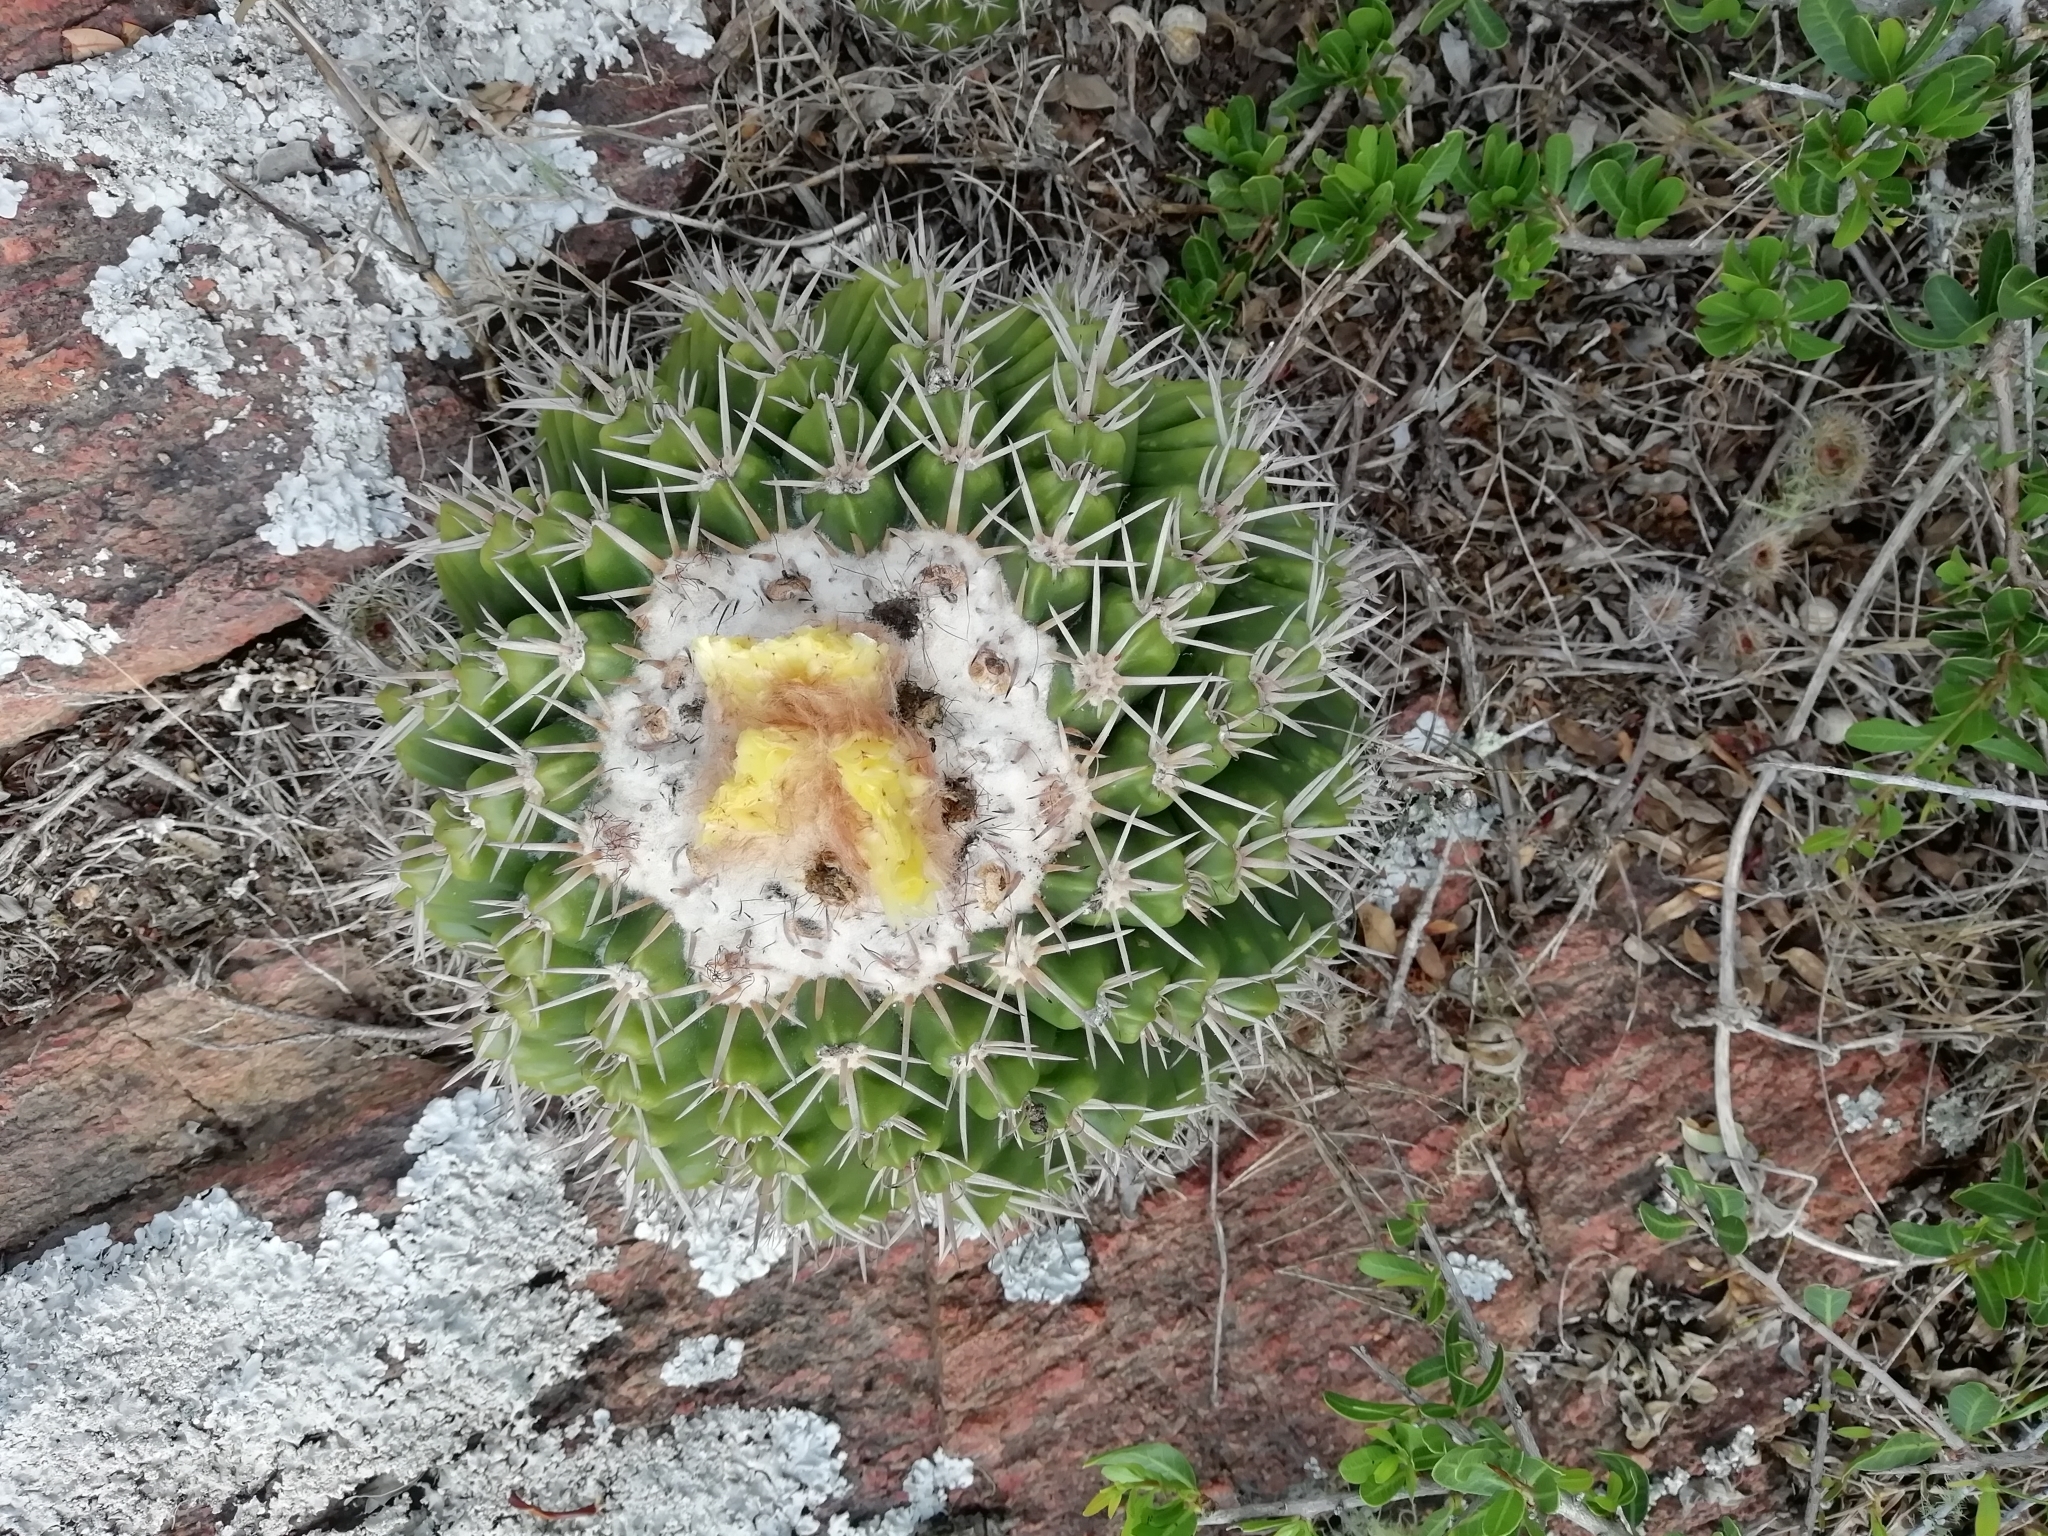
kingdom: Plantae
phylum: Tracheophyta
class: Magnoliopsida
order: Caryophyllales
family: Cactaceae
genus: Parodia
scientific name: Parodia erinacea
